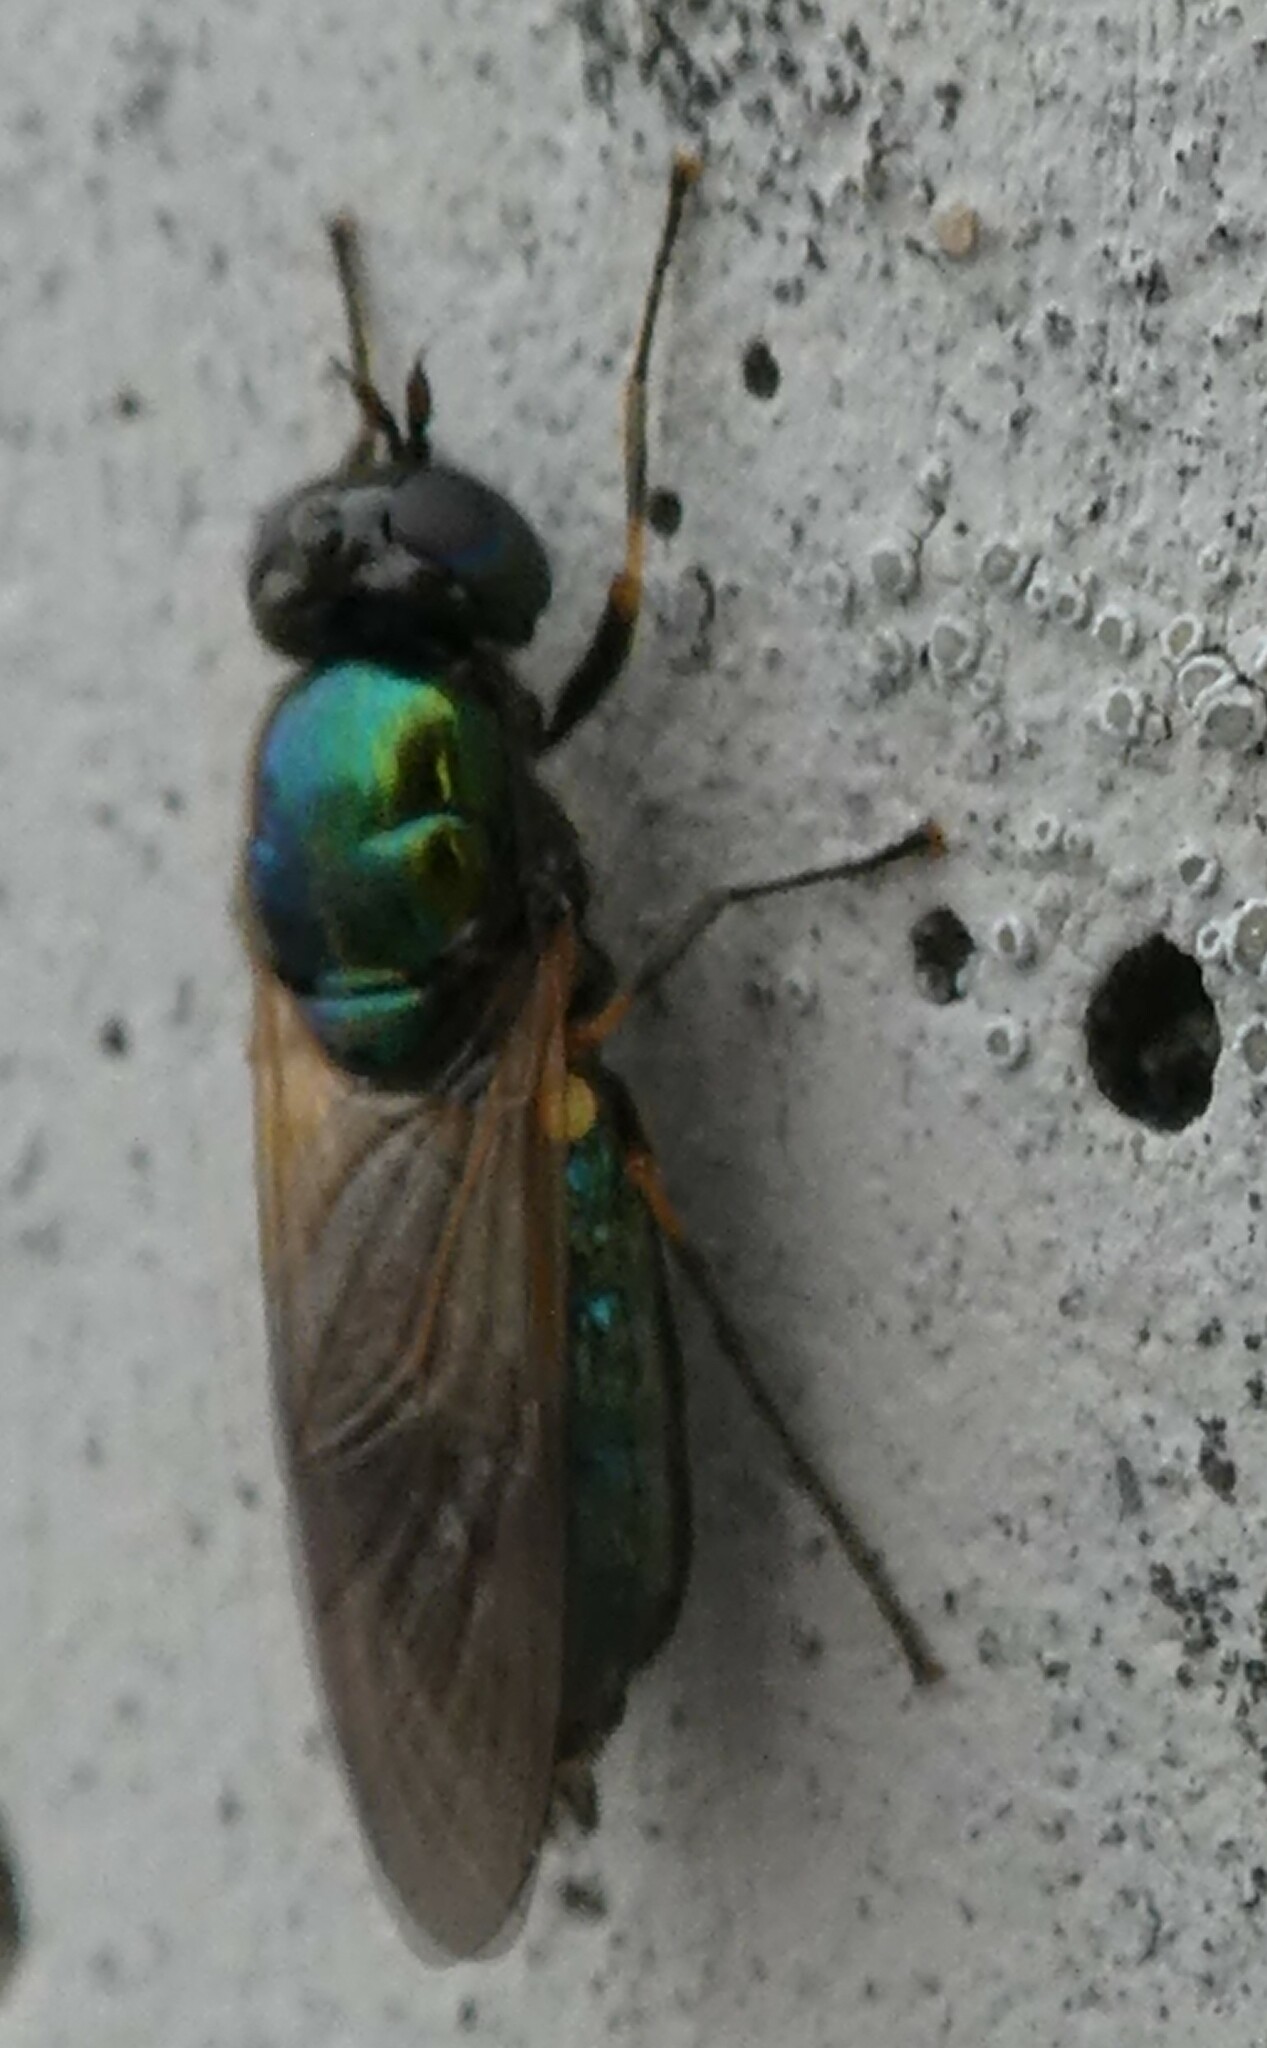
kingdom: Animalia
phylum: Arthropoda
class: Insecta
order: Diptera
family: Stratiomyidae
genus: Chloromyia
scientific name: Chloromyia formosa
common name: Soldier fly
